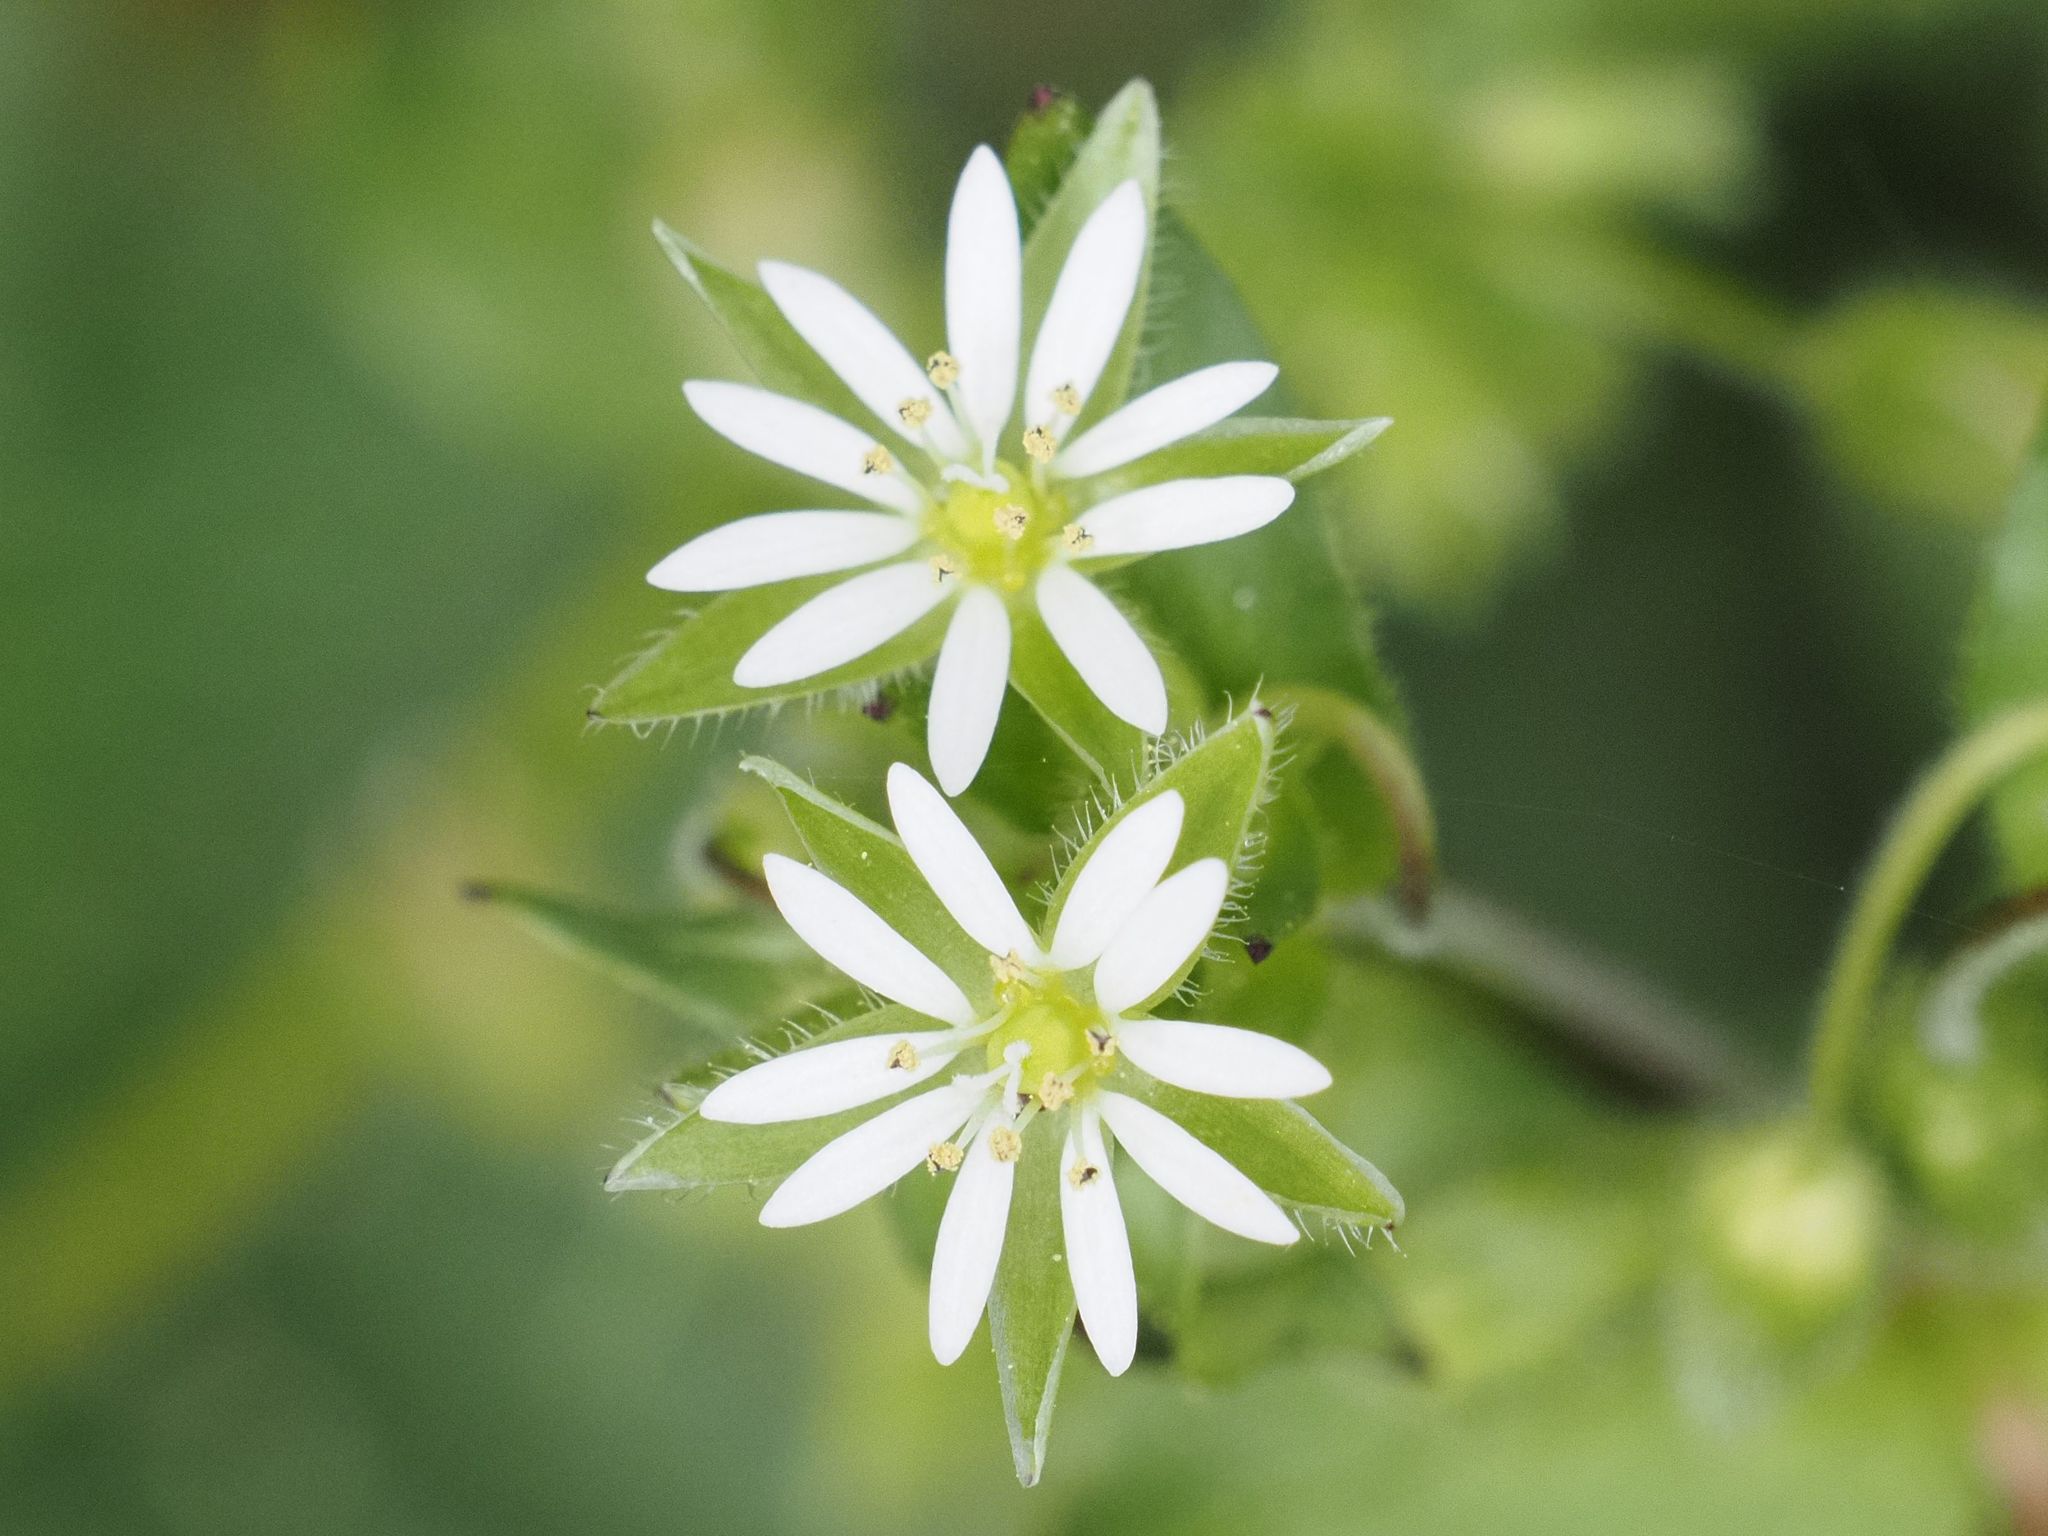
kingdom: Plantae
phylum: Tracheophyta
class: Magnoliopsida
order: Caryophyllales
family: Caryophyllaceae
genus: Stellaria
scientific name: Stellaria media
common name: Common chickweed
